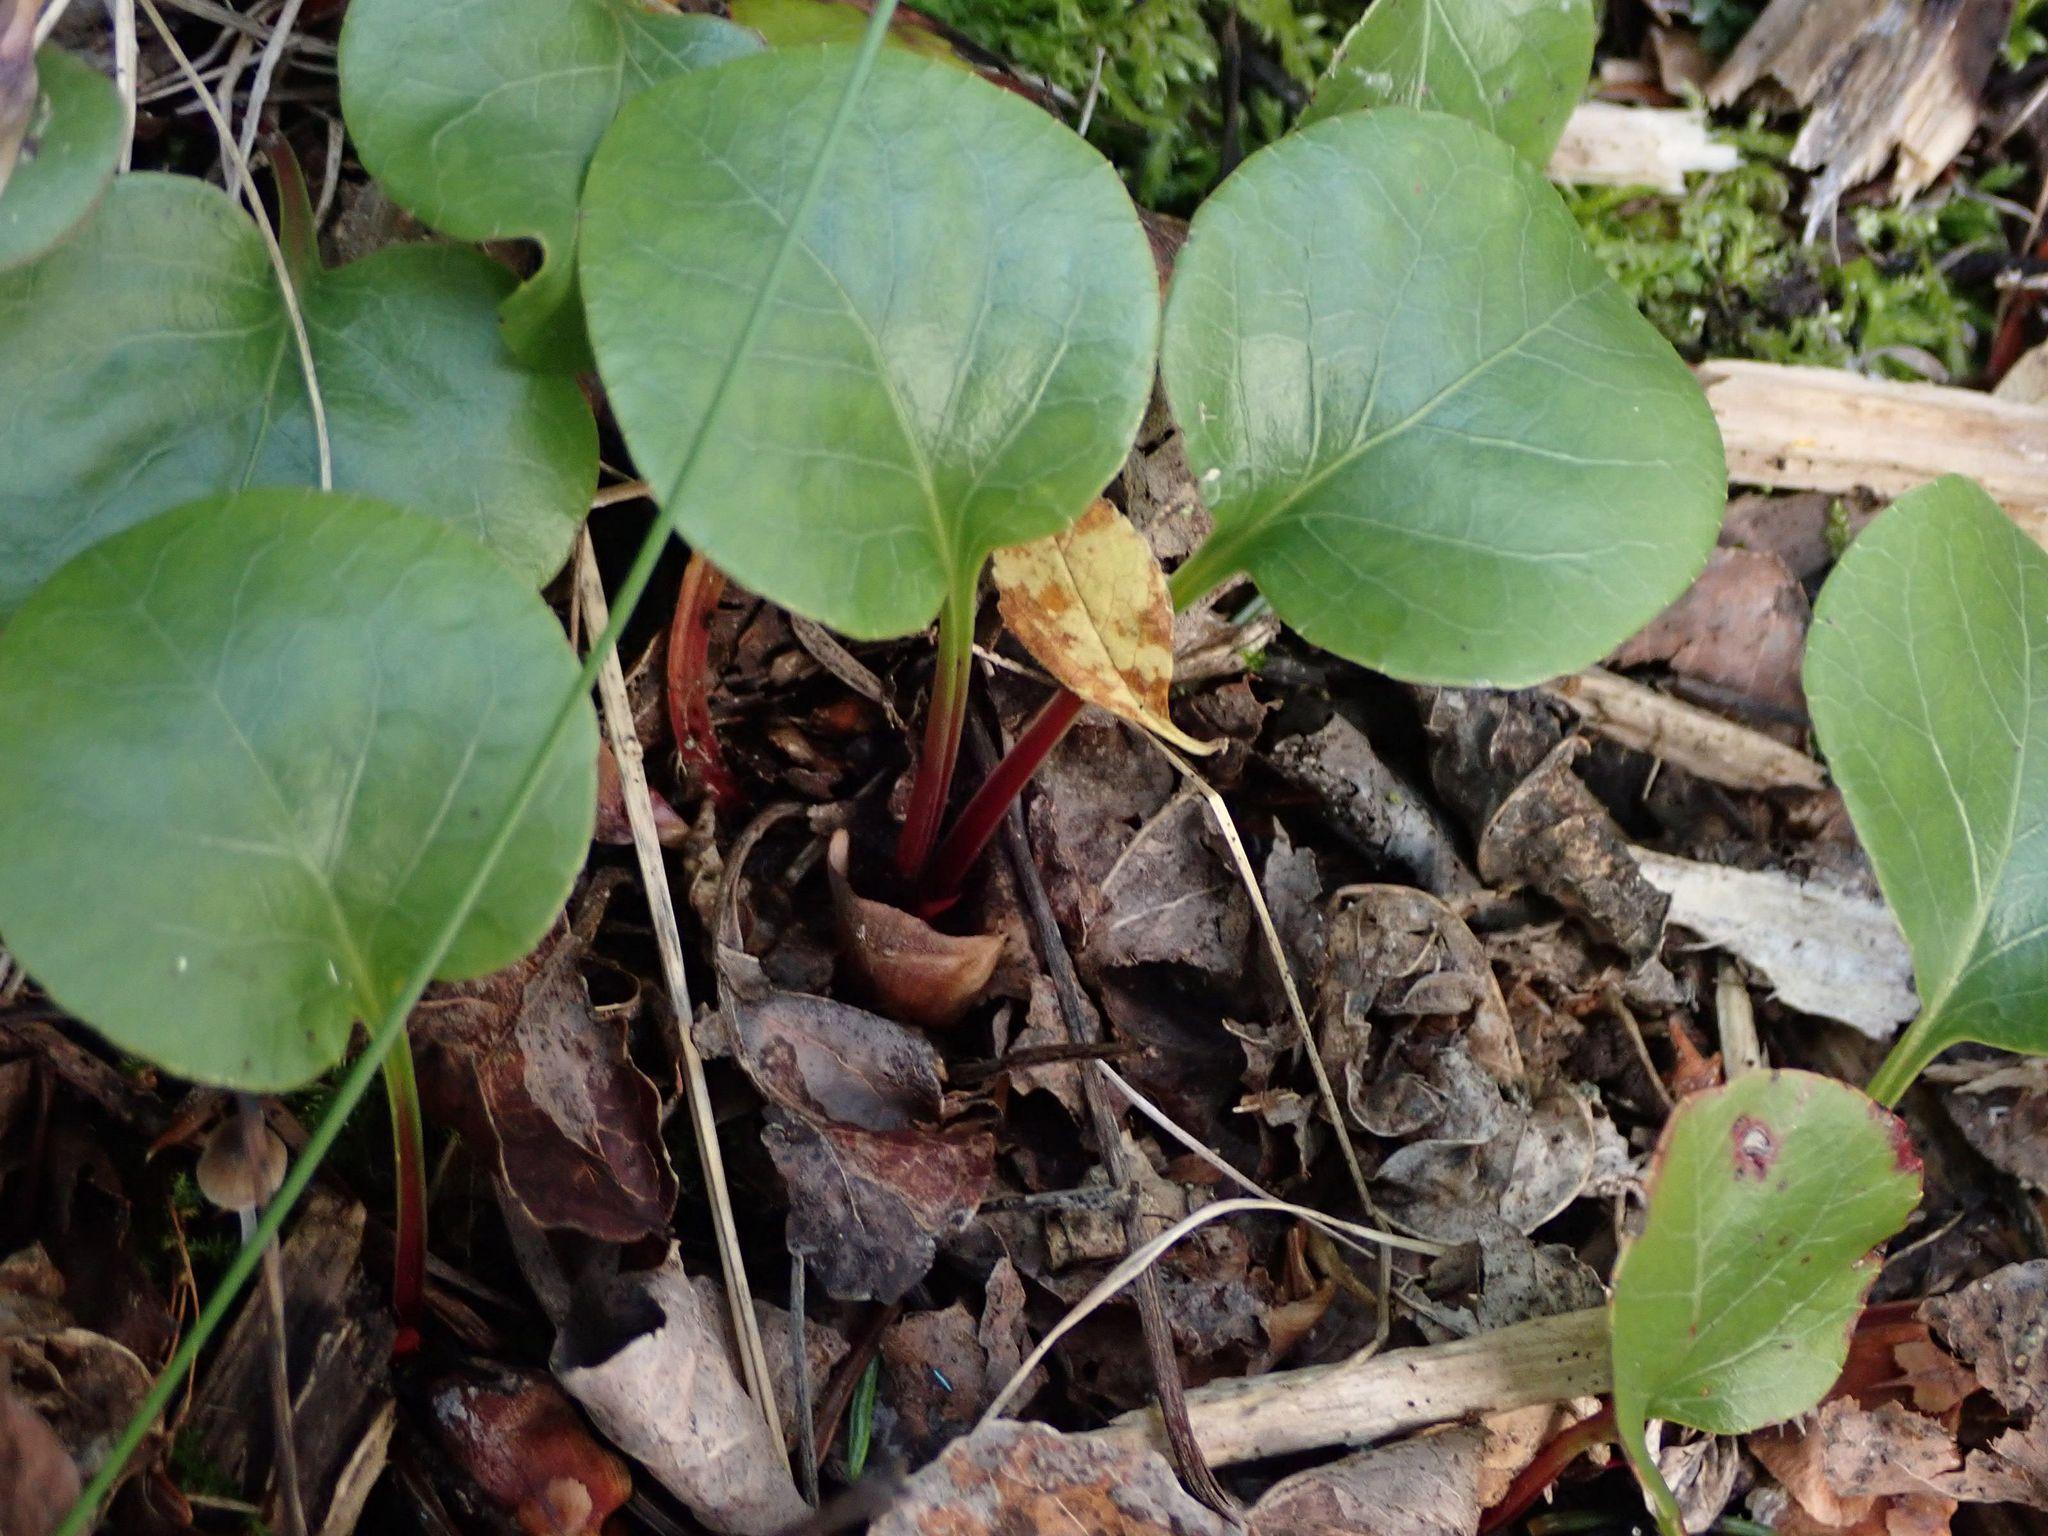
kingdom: Plantae
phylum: Tracheophyta
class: Magnoliopsida
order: Ericales
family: Ericaceae
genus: Pyrola
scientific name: Pyrola asarifolia
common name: Bog wintergreen
